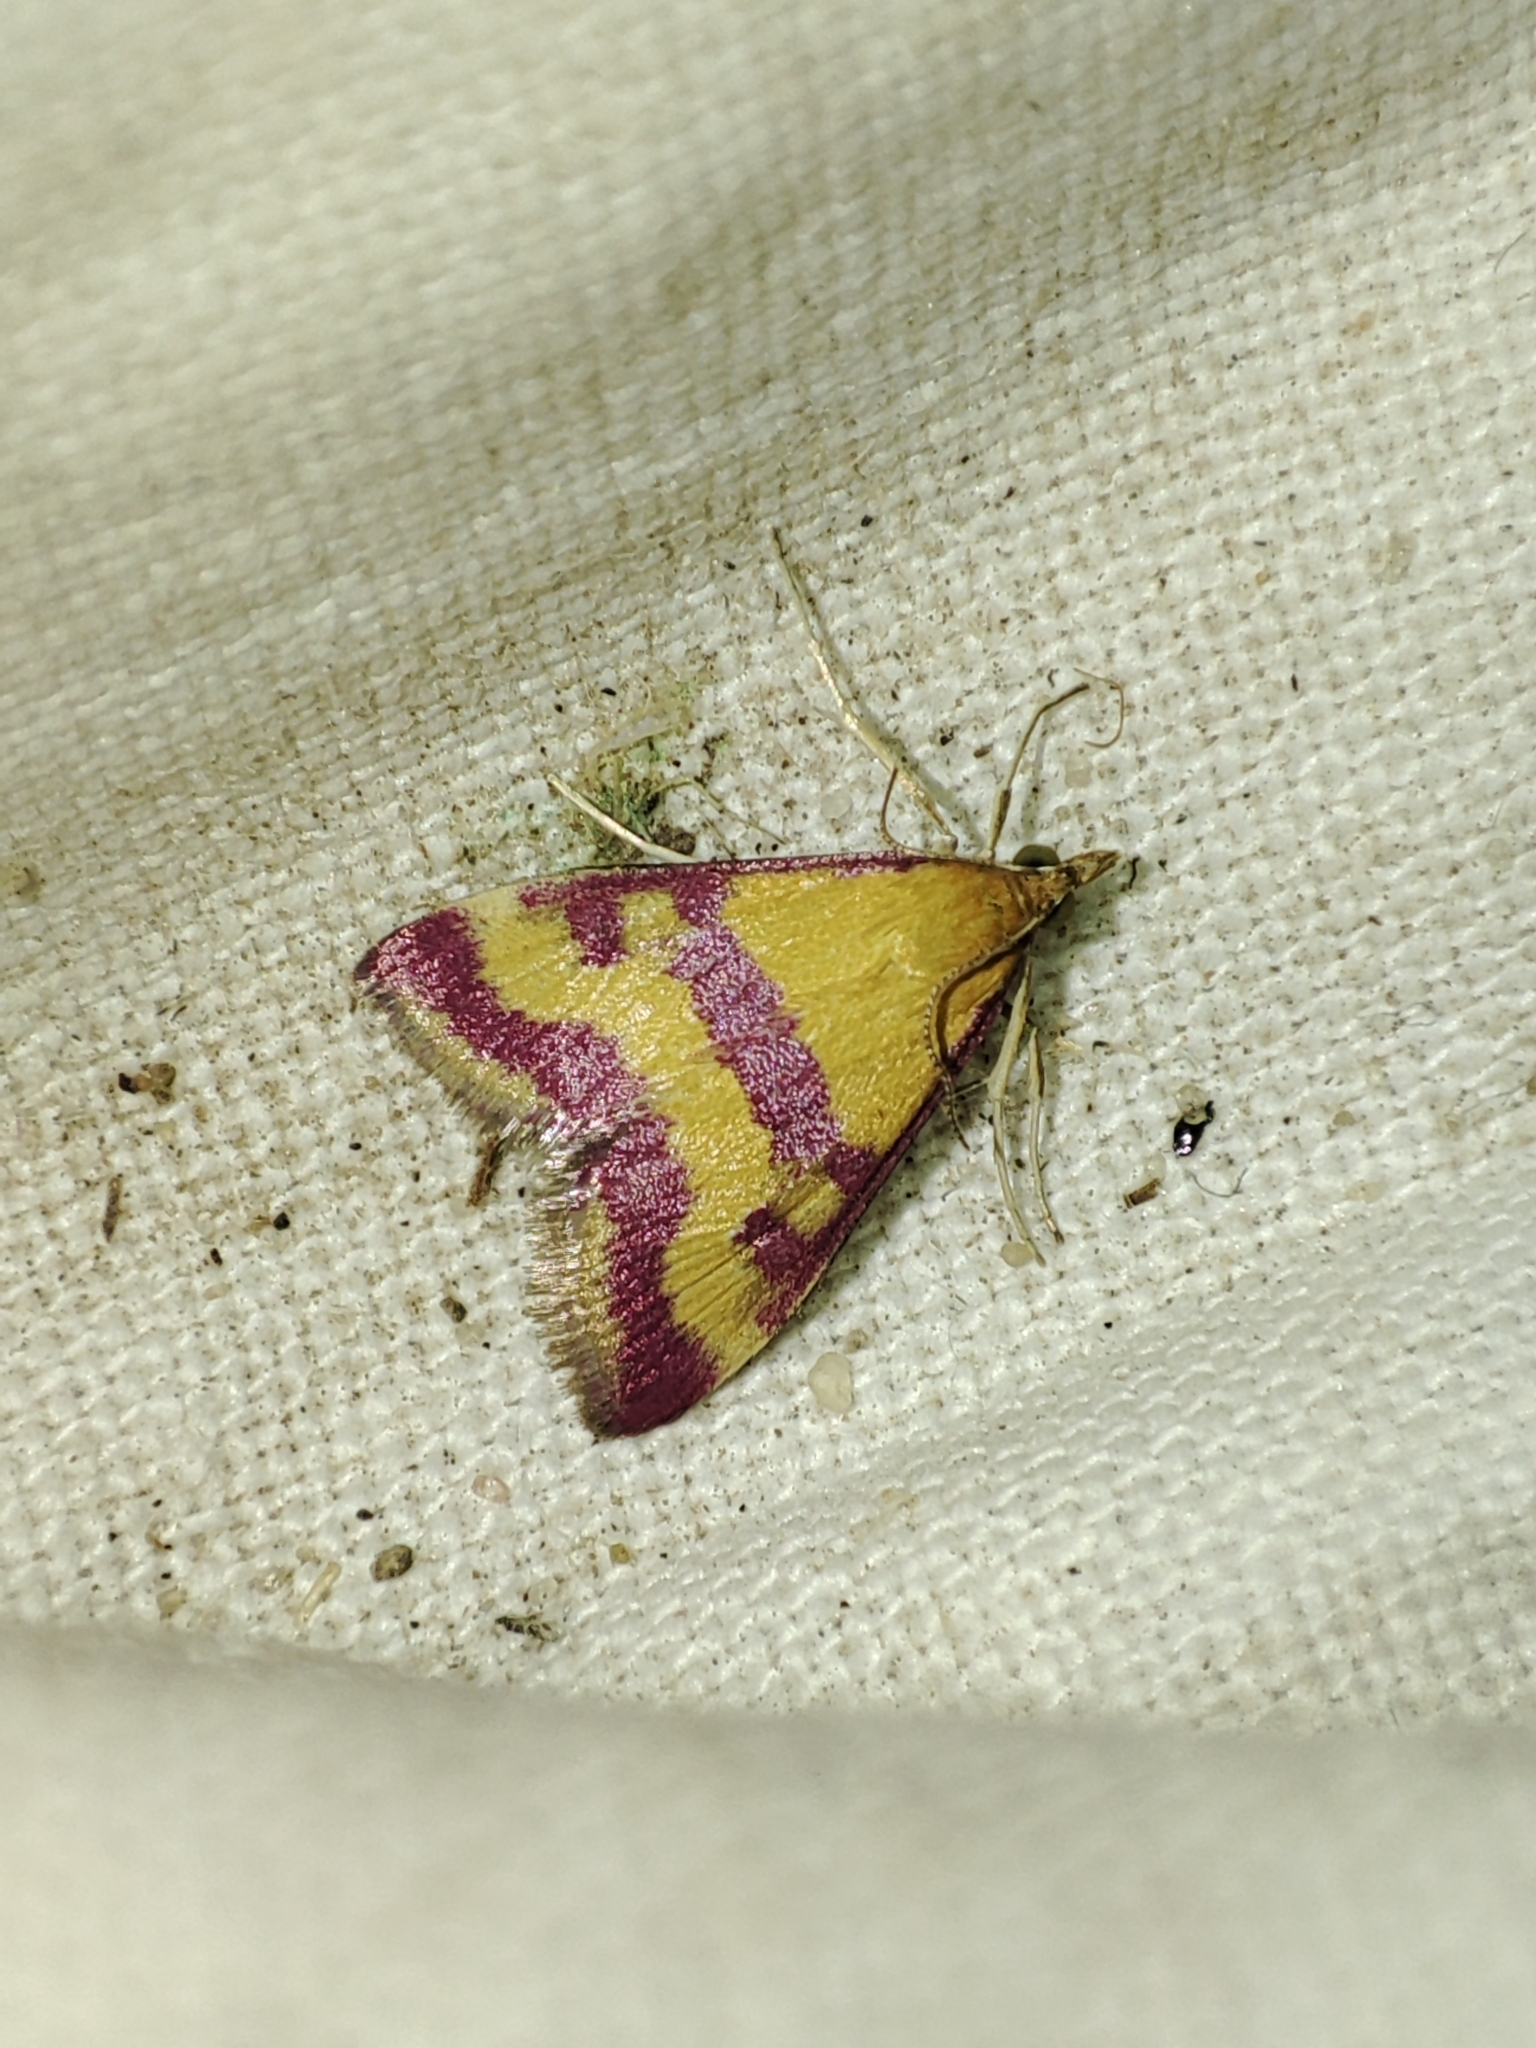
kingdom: Animalia
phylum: Arthropoda
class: Insecta
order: Lepidoptera
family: Crambidae
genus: Pyrausta
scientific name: Pyrausta sanguinalis
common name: Scarce crimson and gold
